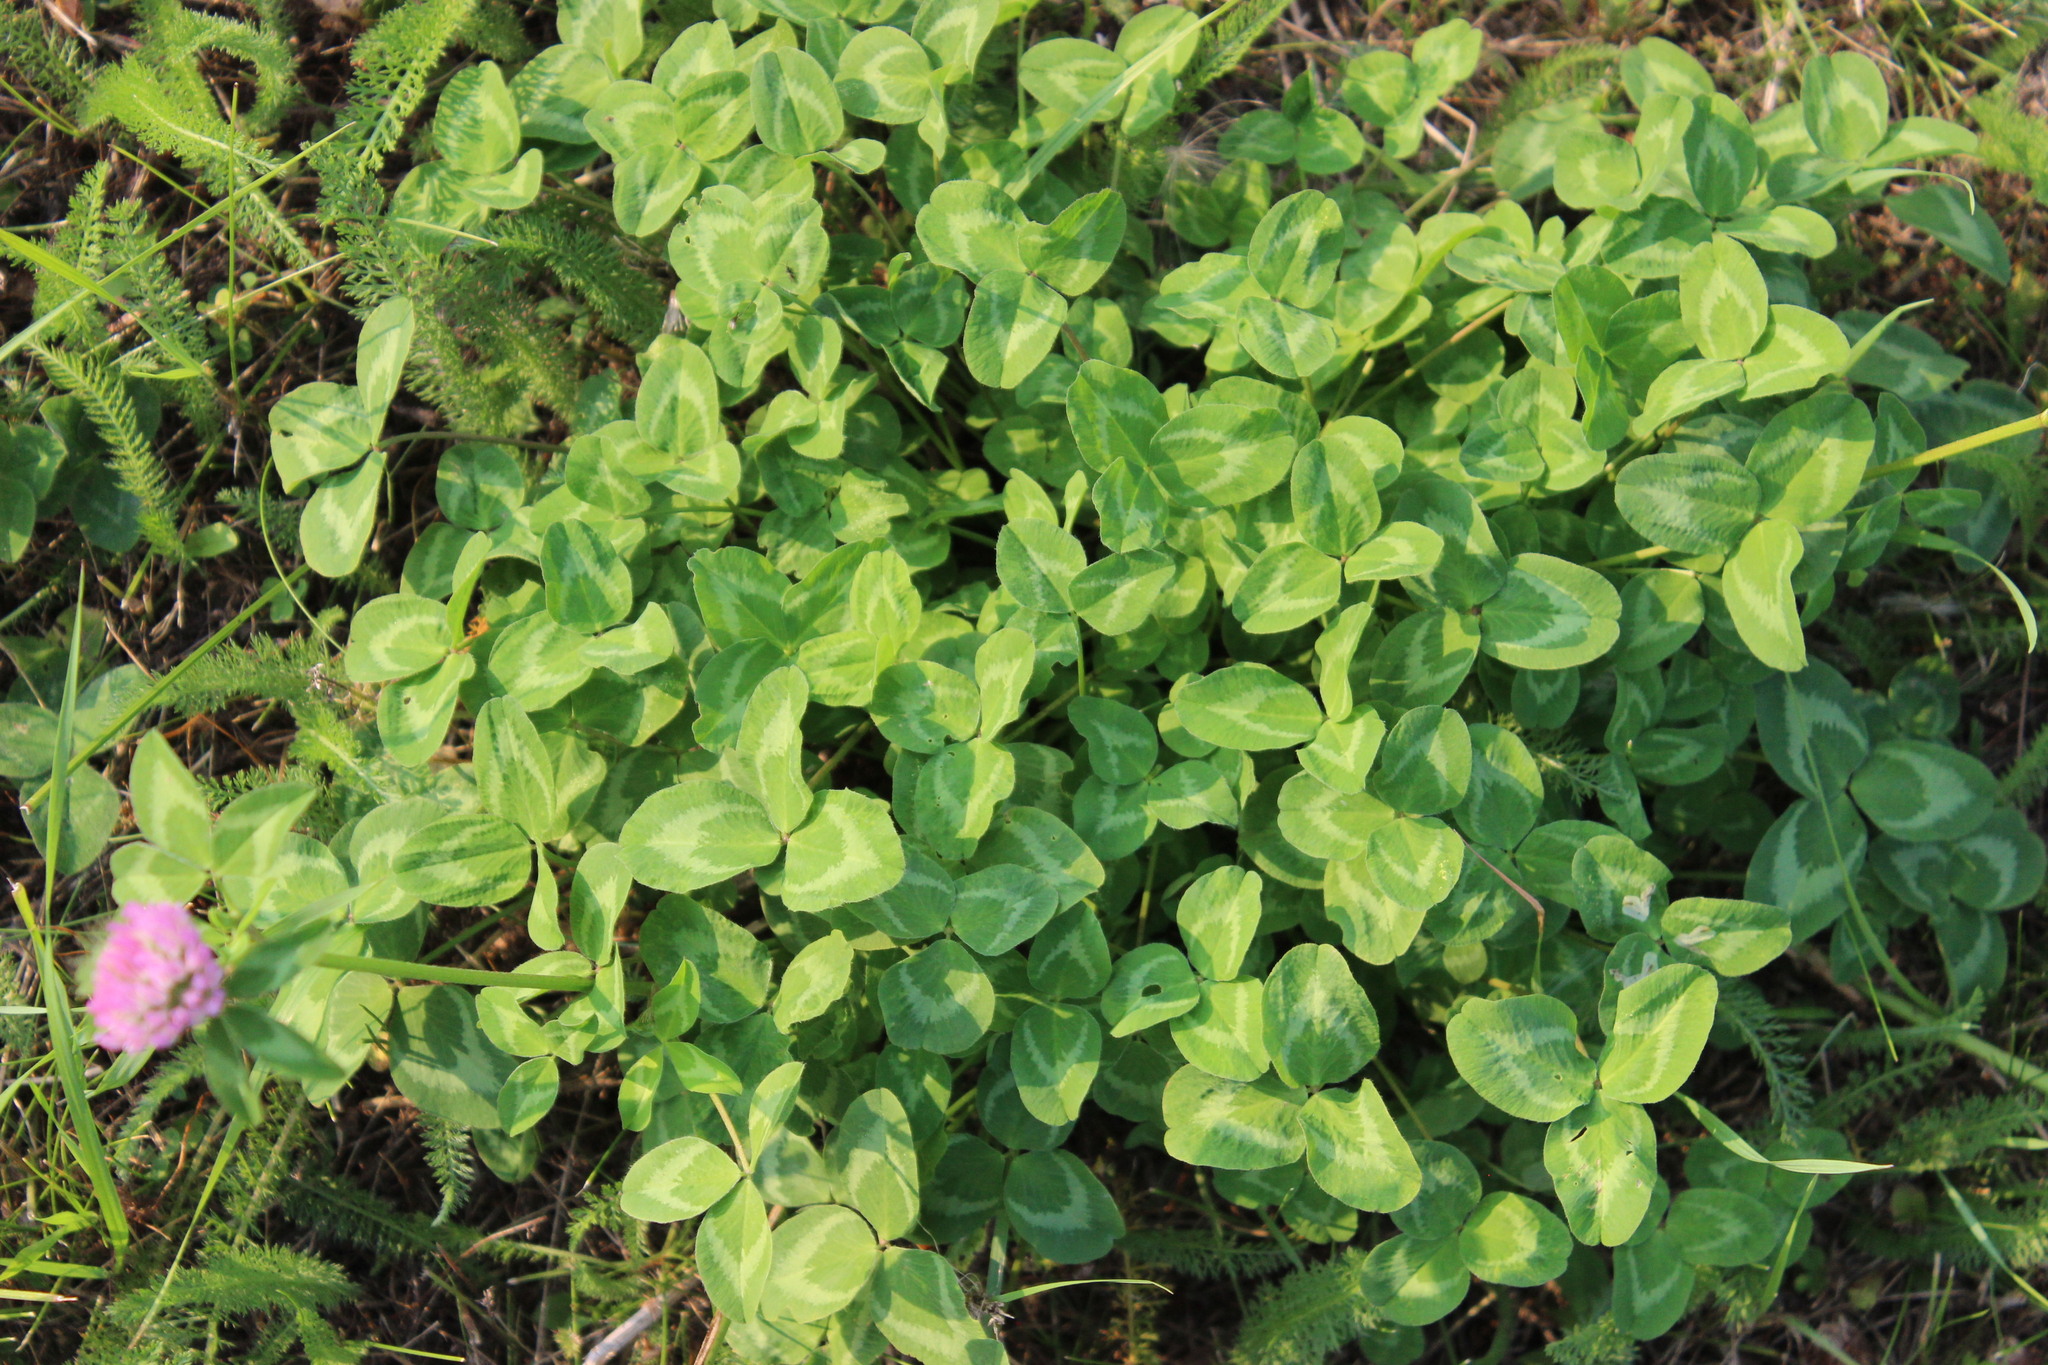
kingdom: Plantae
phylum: Tracheophyta
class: Magnoliopsida
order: Fabales
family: Fabaceae
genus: Trifolium
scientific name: Trifolium pratense
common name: Red clover
